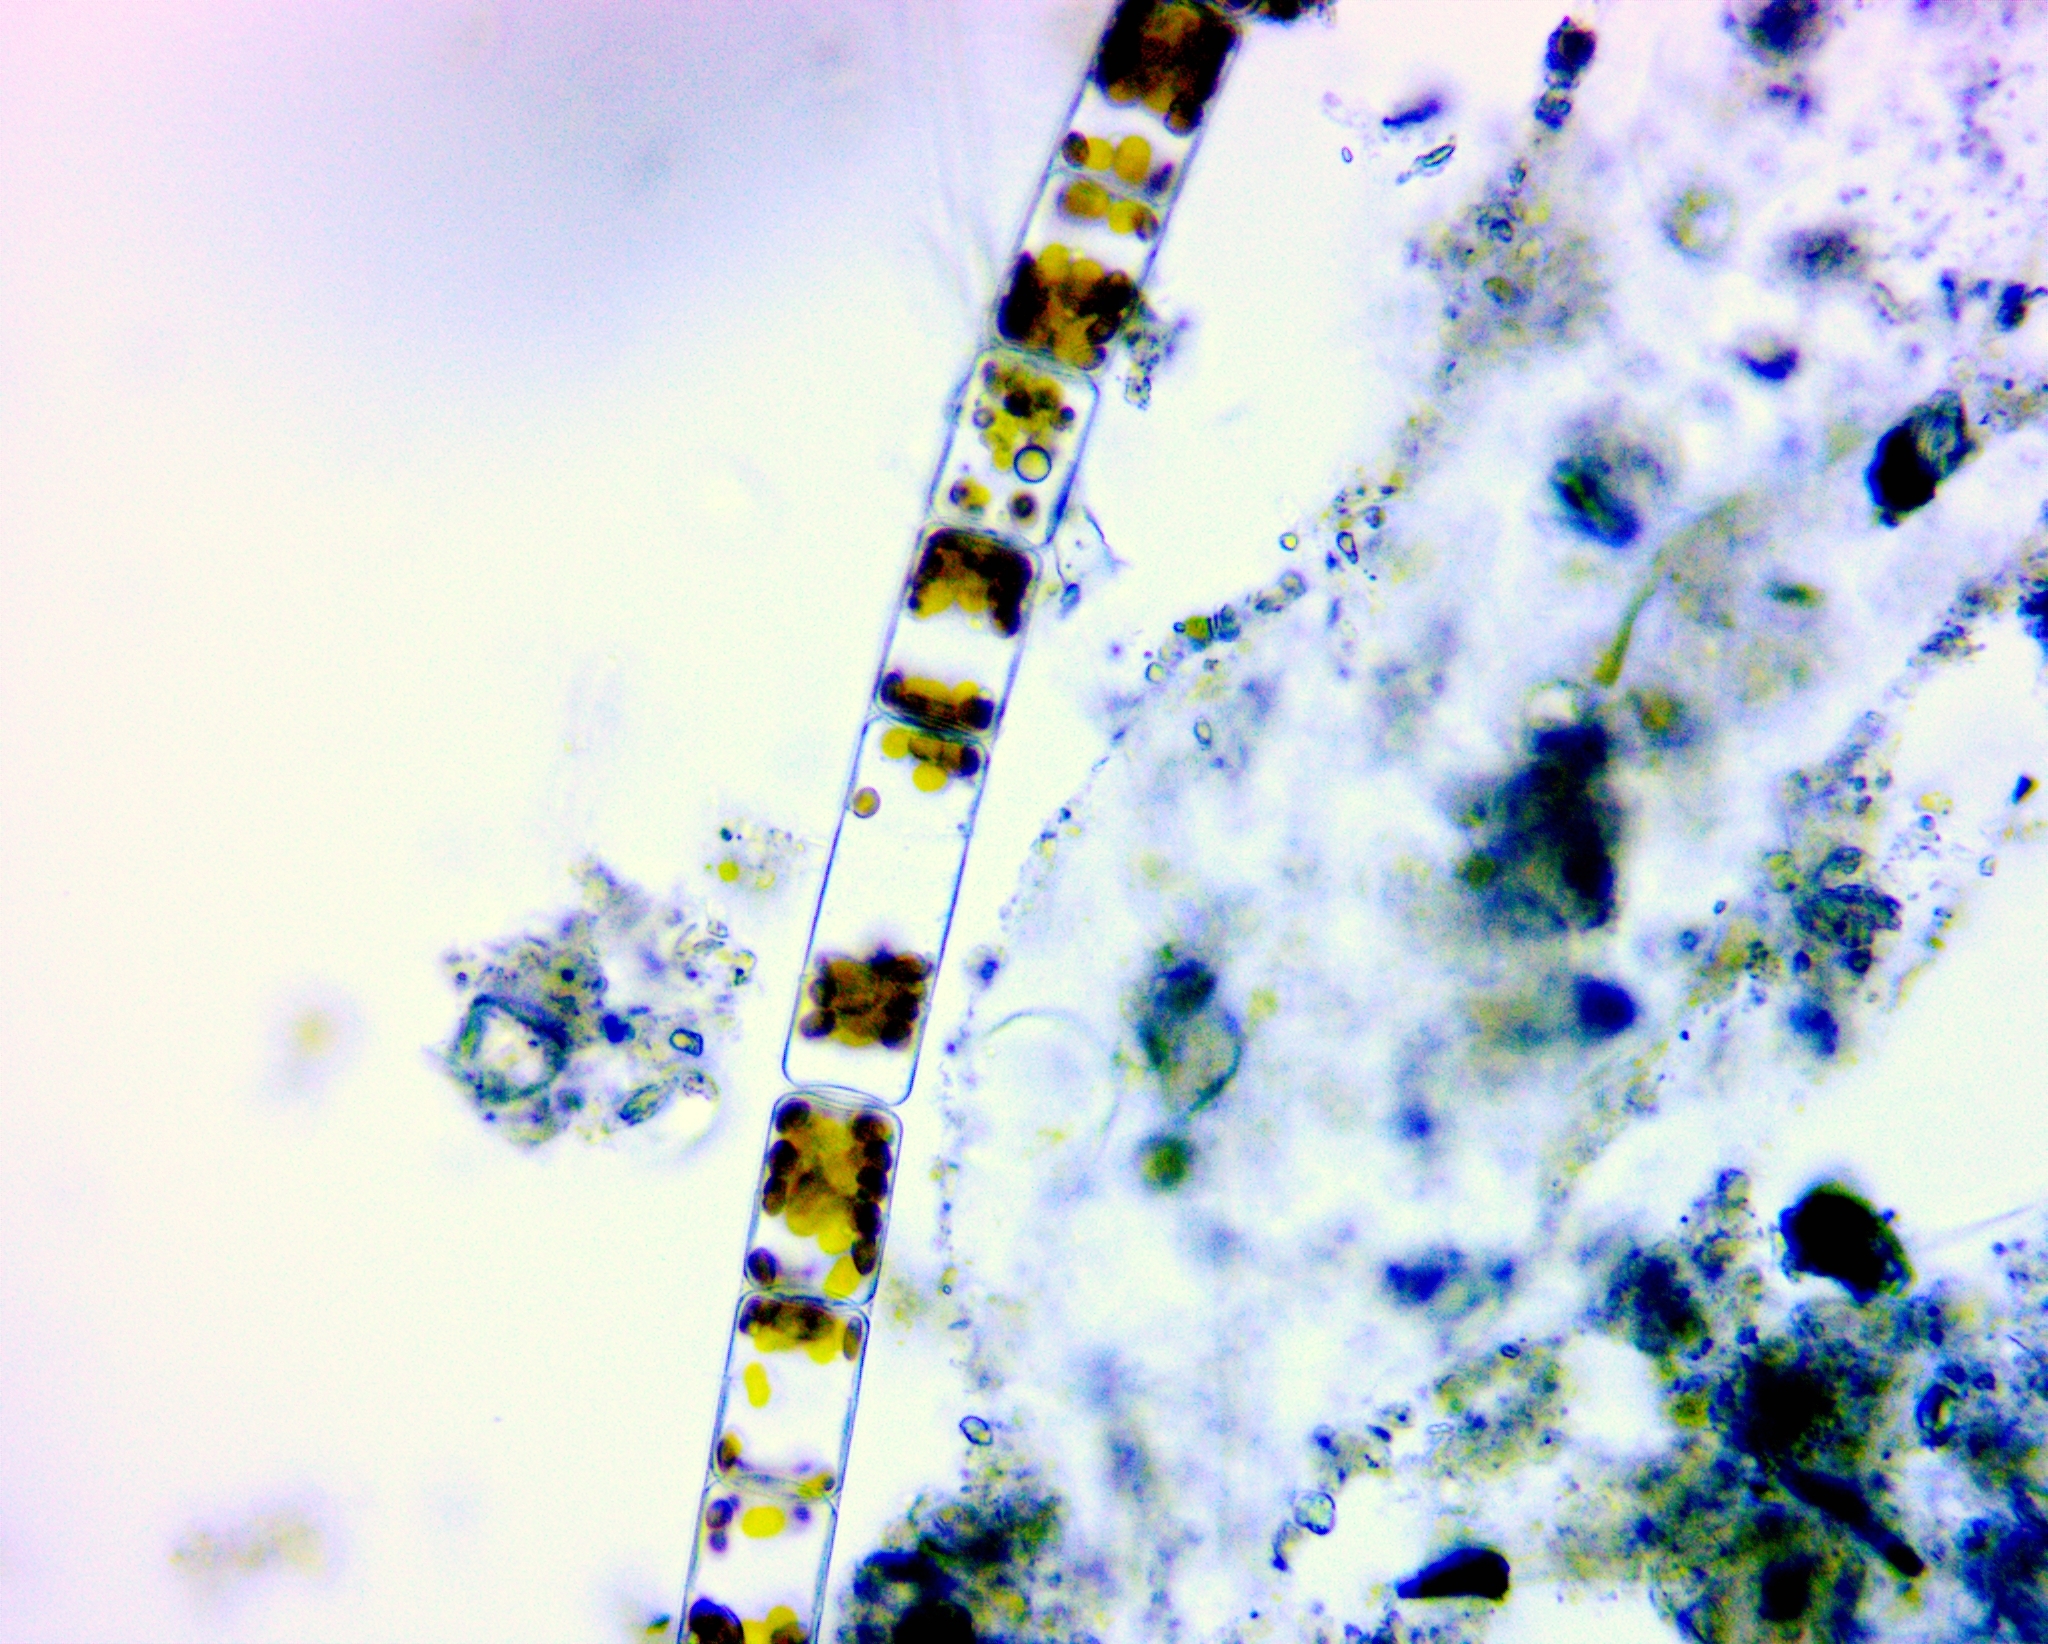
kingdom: Chromista
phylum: Ochrophyta
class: Bacillariophyceae
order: Melosirales
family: Melosiraceae
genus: Melosira
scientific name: Melosira varians
